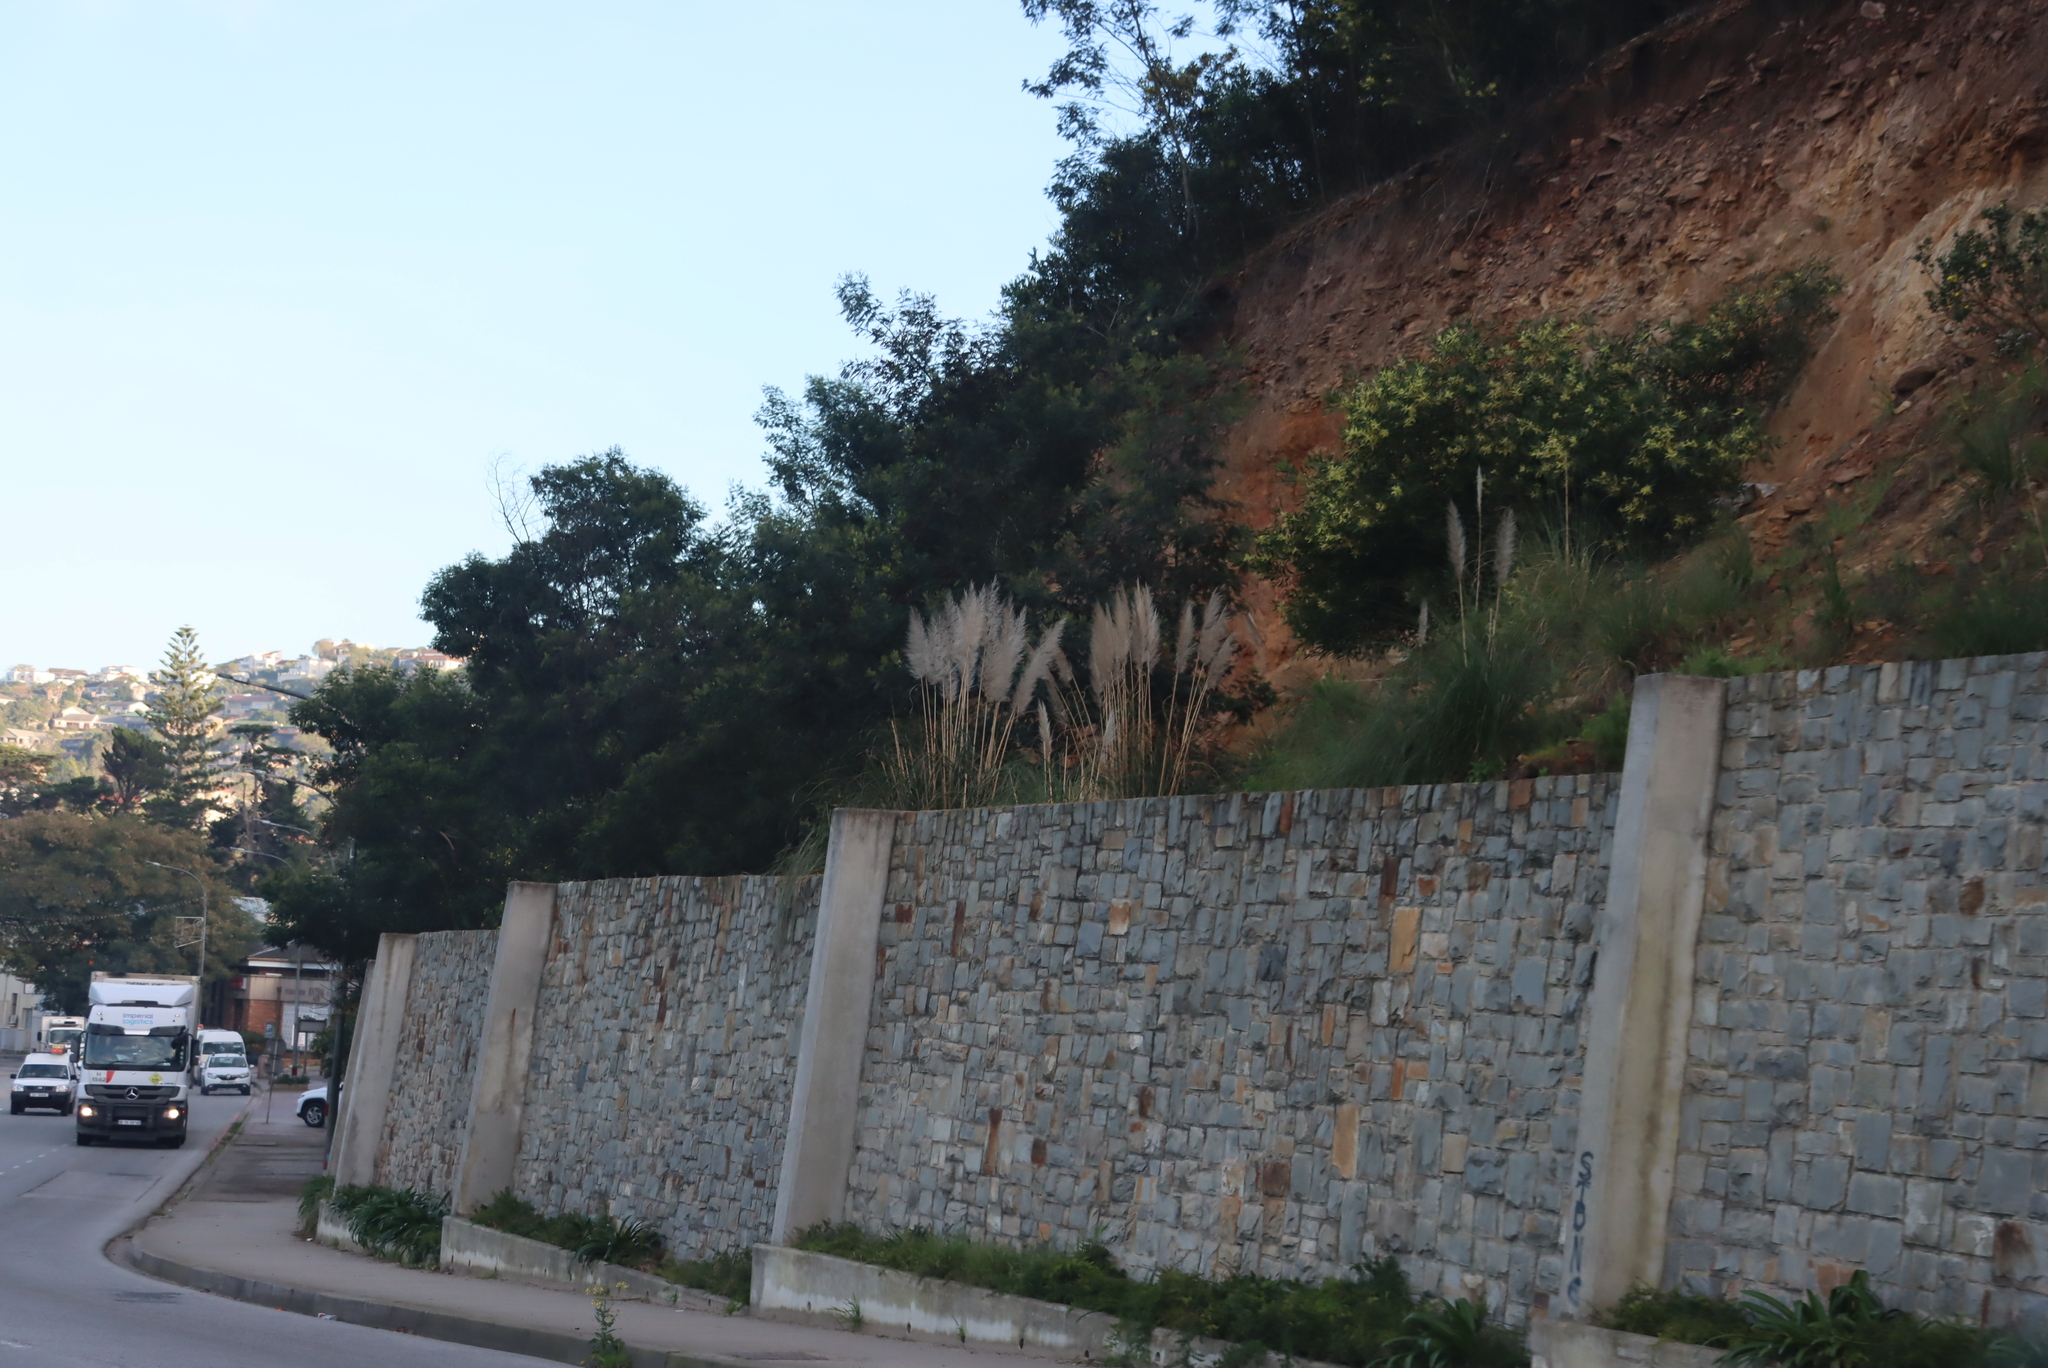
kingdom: Plantae
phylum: Tracheophyta
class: Liliopsida
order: Poales
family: Poaceae
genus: Cortaderia
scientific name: Cortaderia selloana
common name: Uruguayan pampas grass
